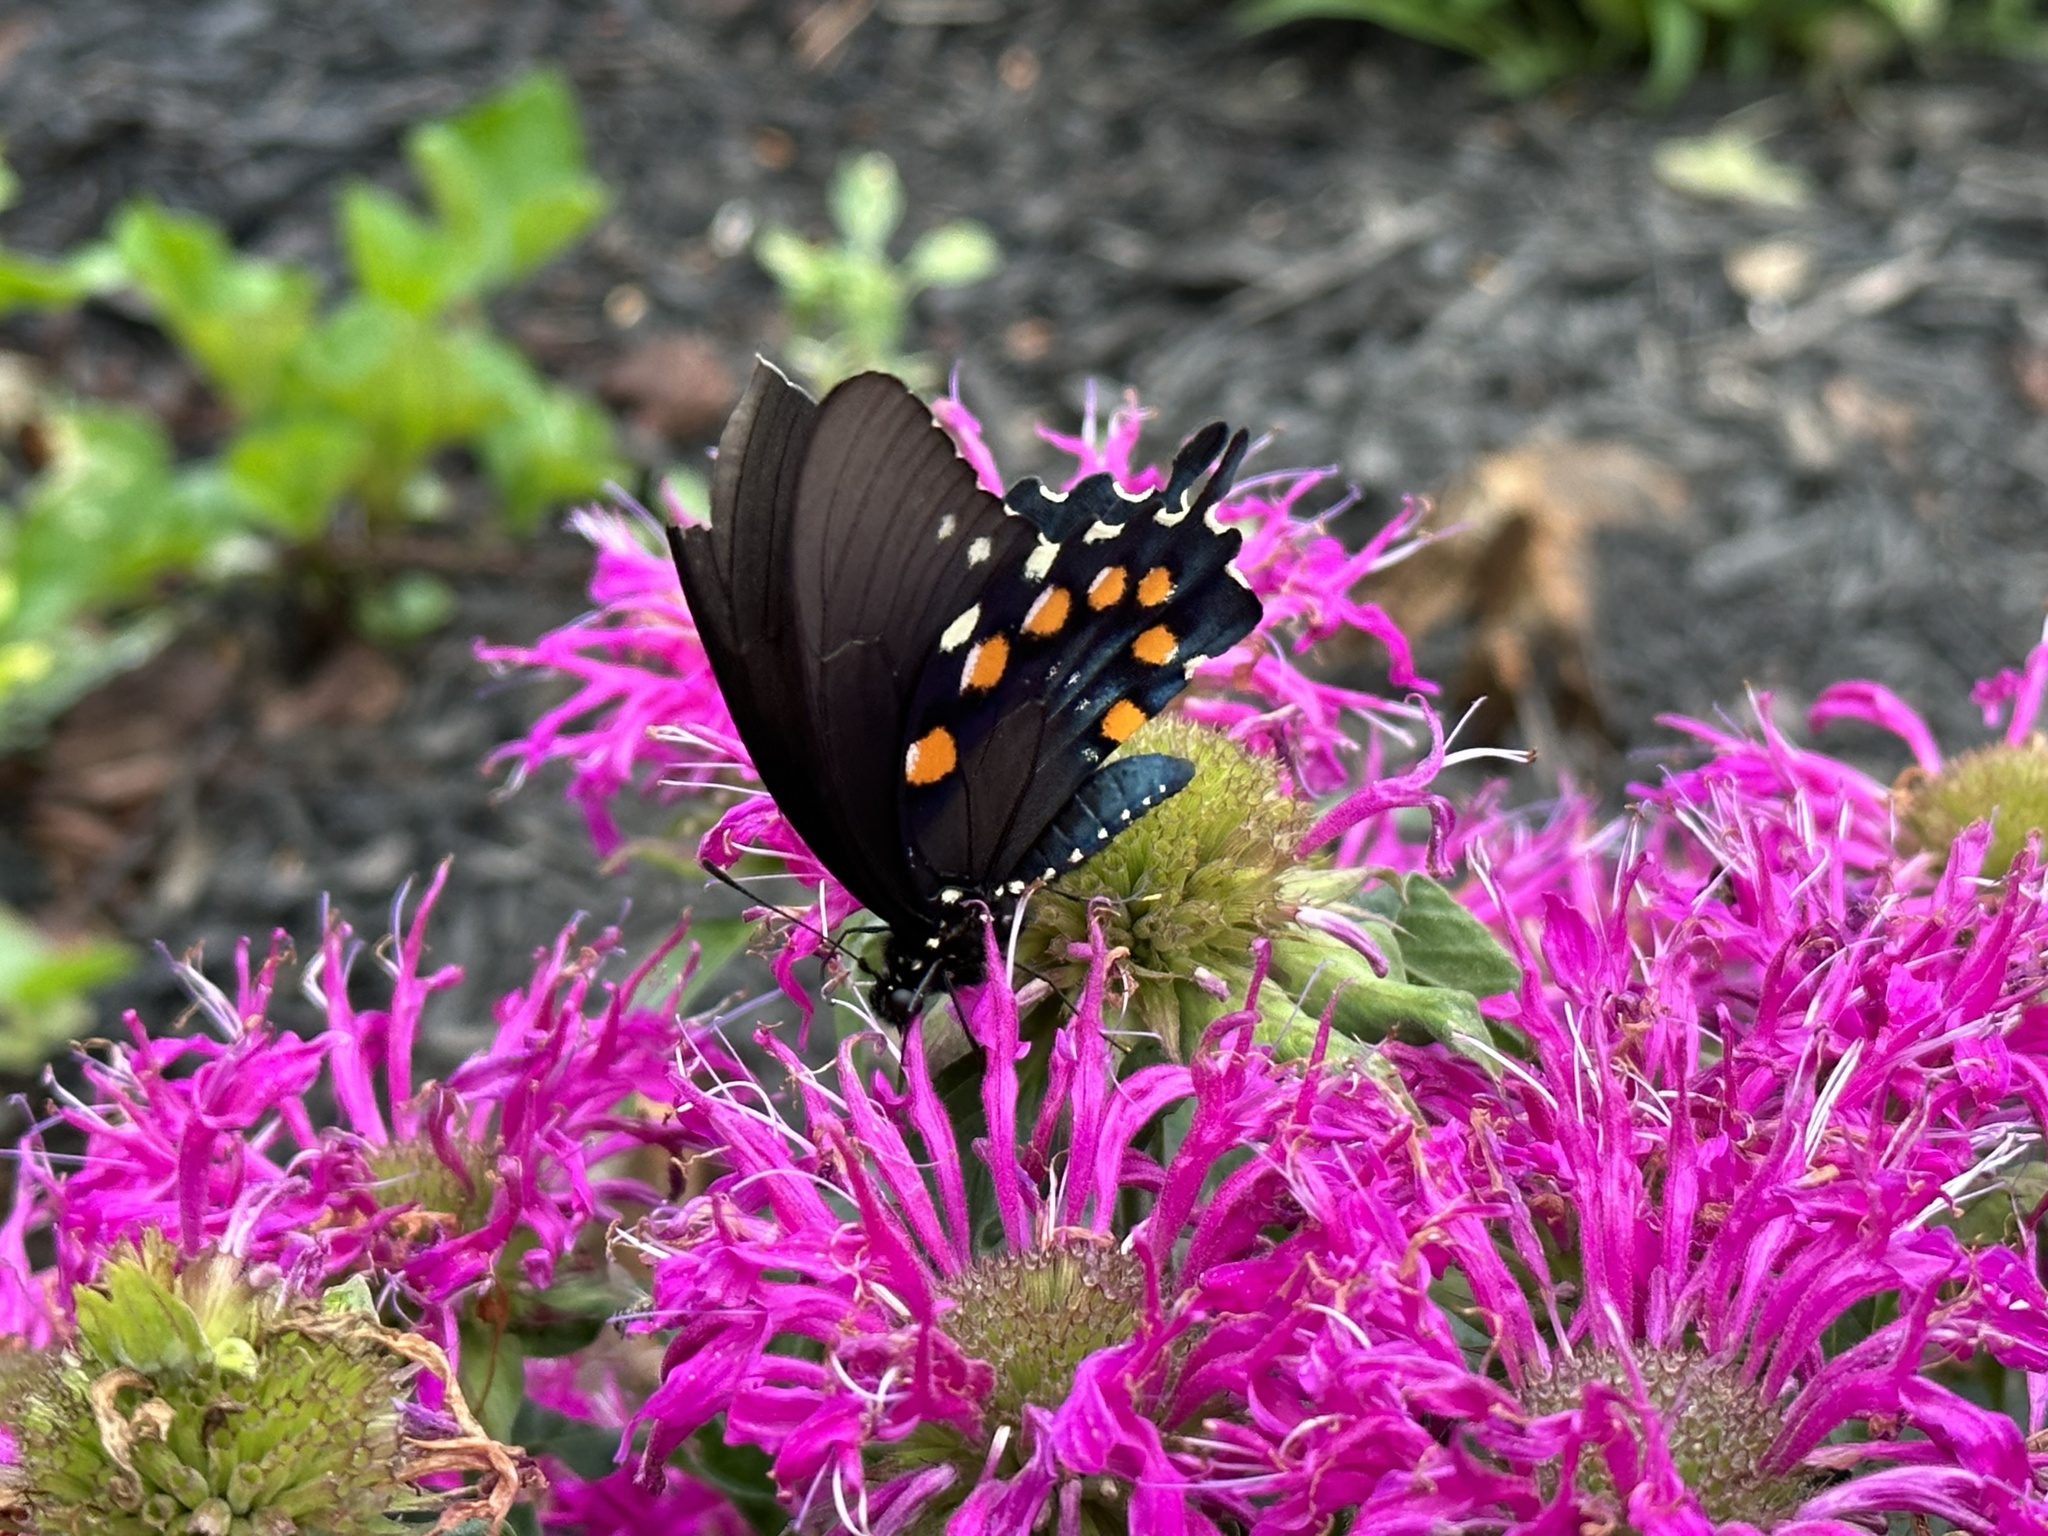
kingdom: Animalia
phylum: Arthropoda
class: Insecta
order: Lepidoptera
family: Papilionidae
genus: Battus
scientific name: Battus philenor
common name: Pipevine swallowtail
